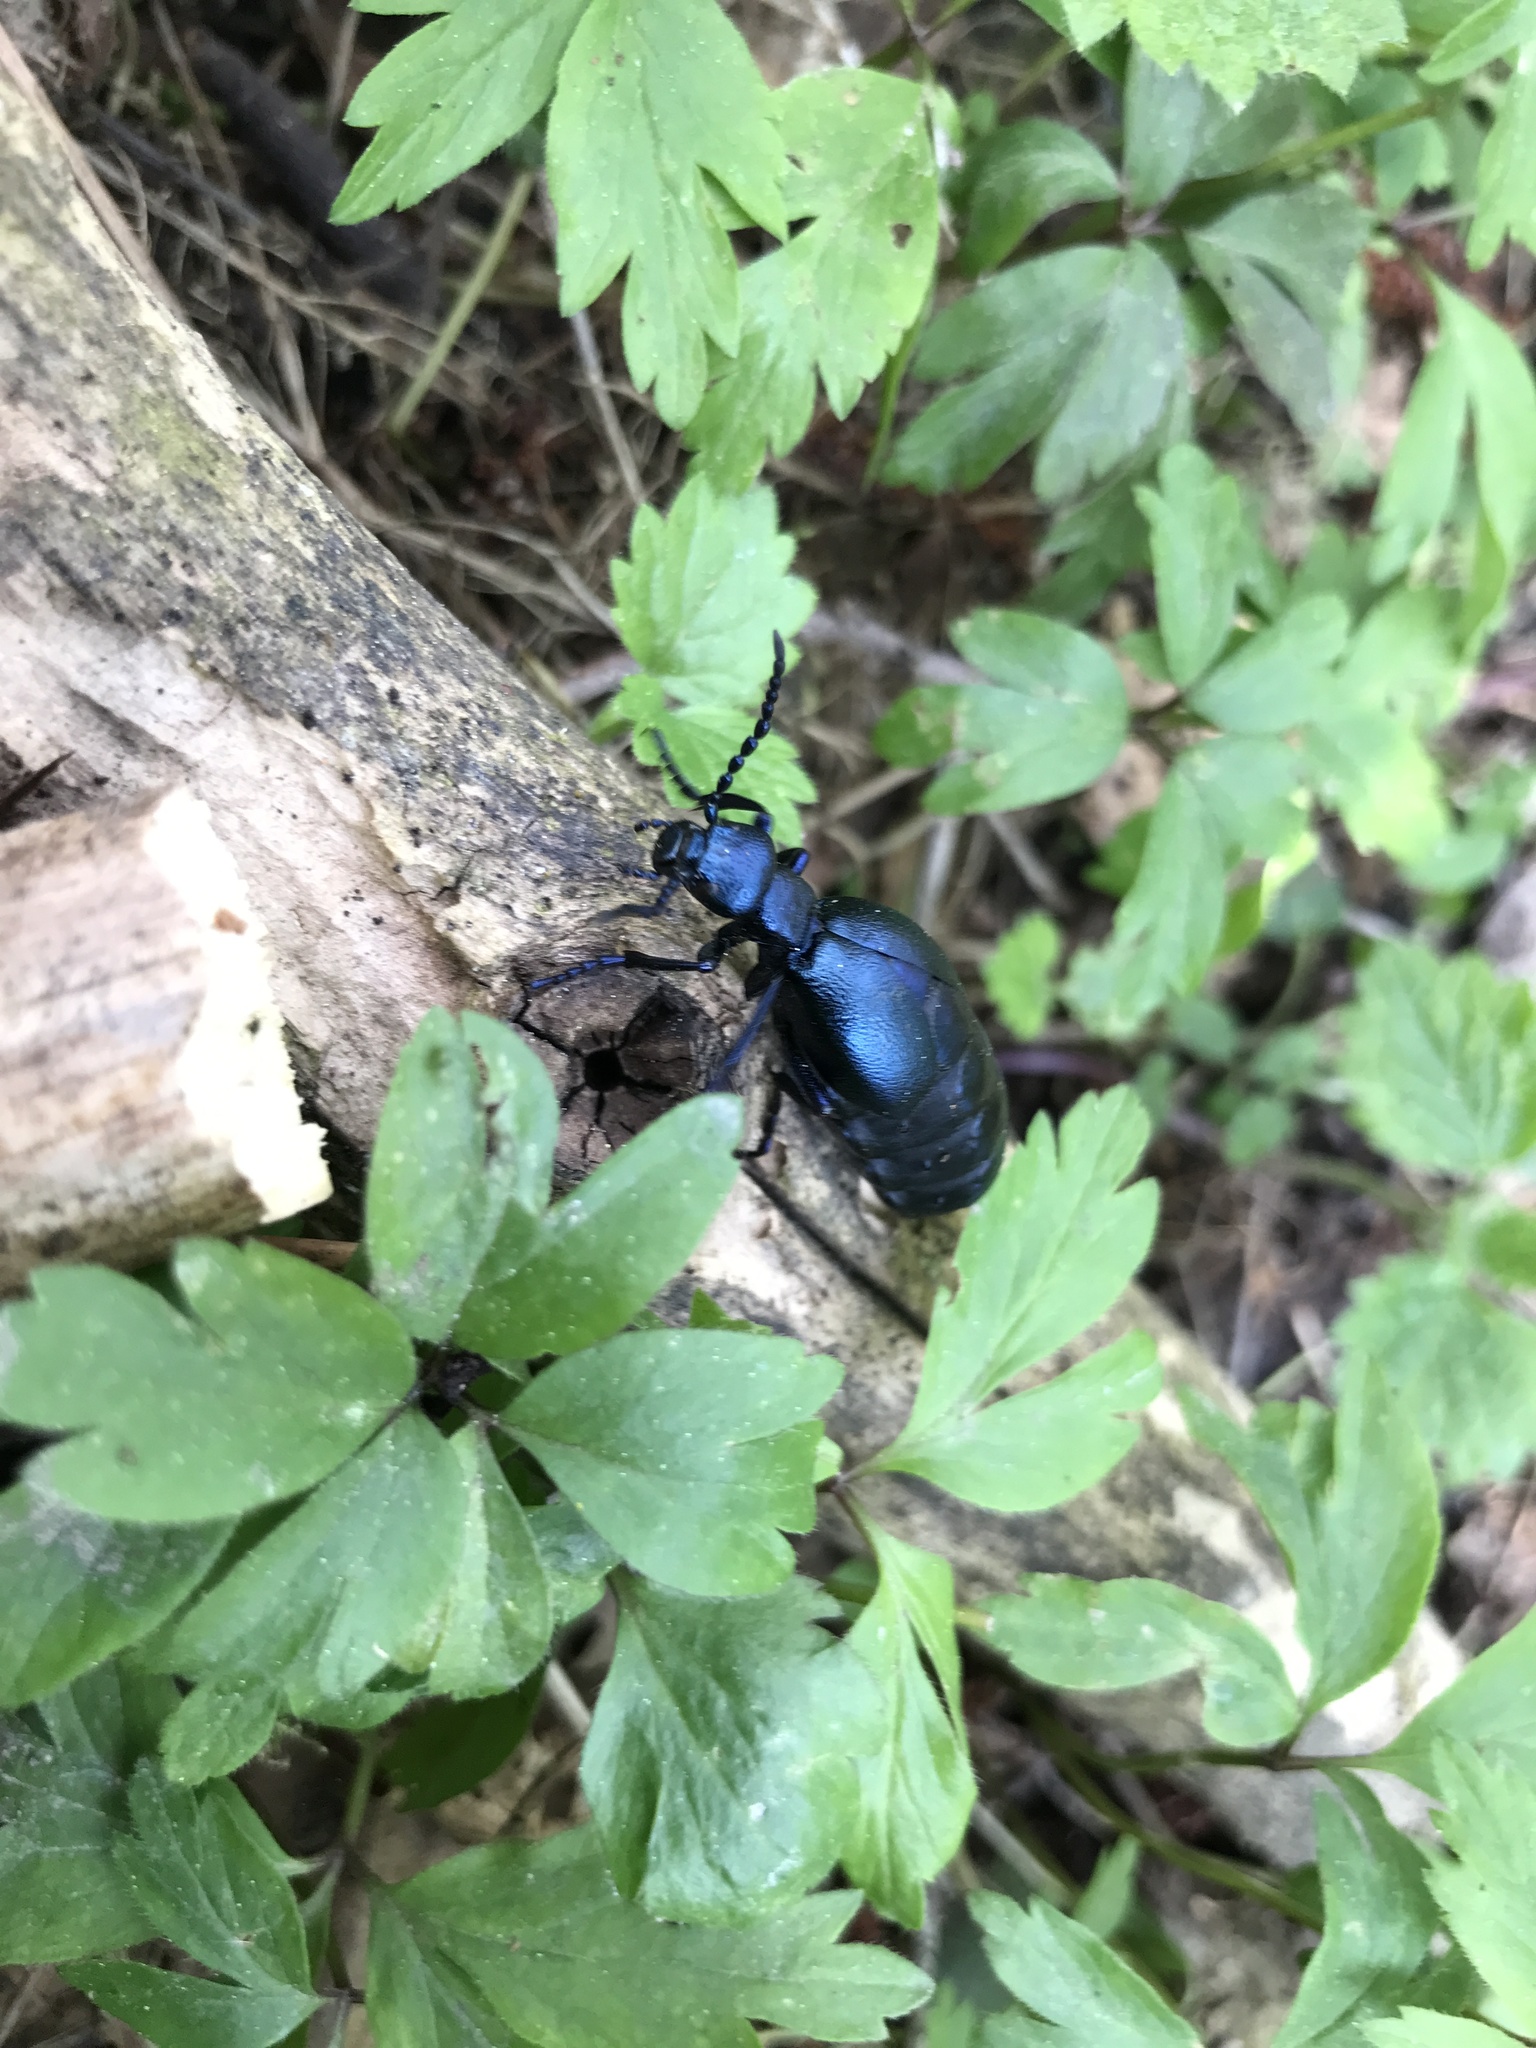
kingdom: Animalia
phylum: Arthropoda
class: Insecta
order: Coleoptera
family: Meloidae
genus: Meloe
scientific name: Meloe violaceus
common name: Violet oil-beetle
